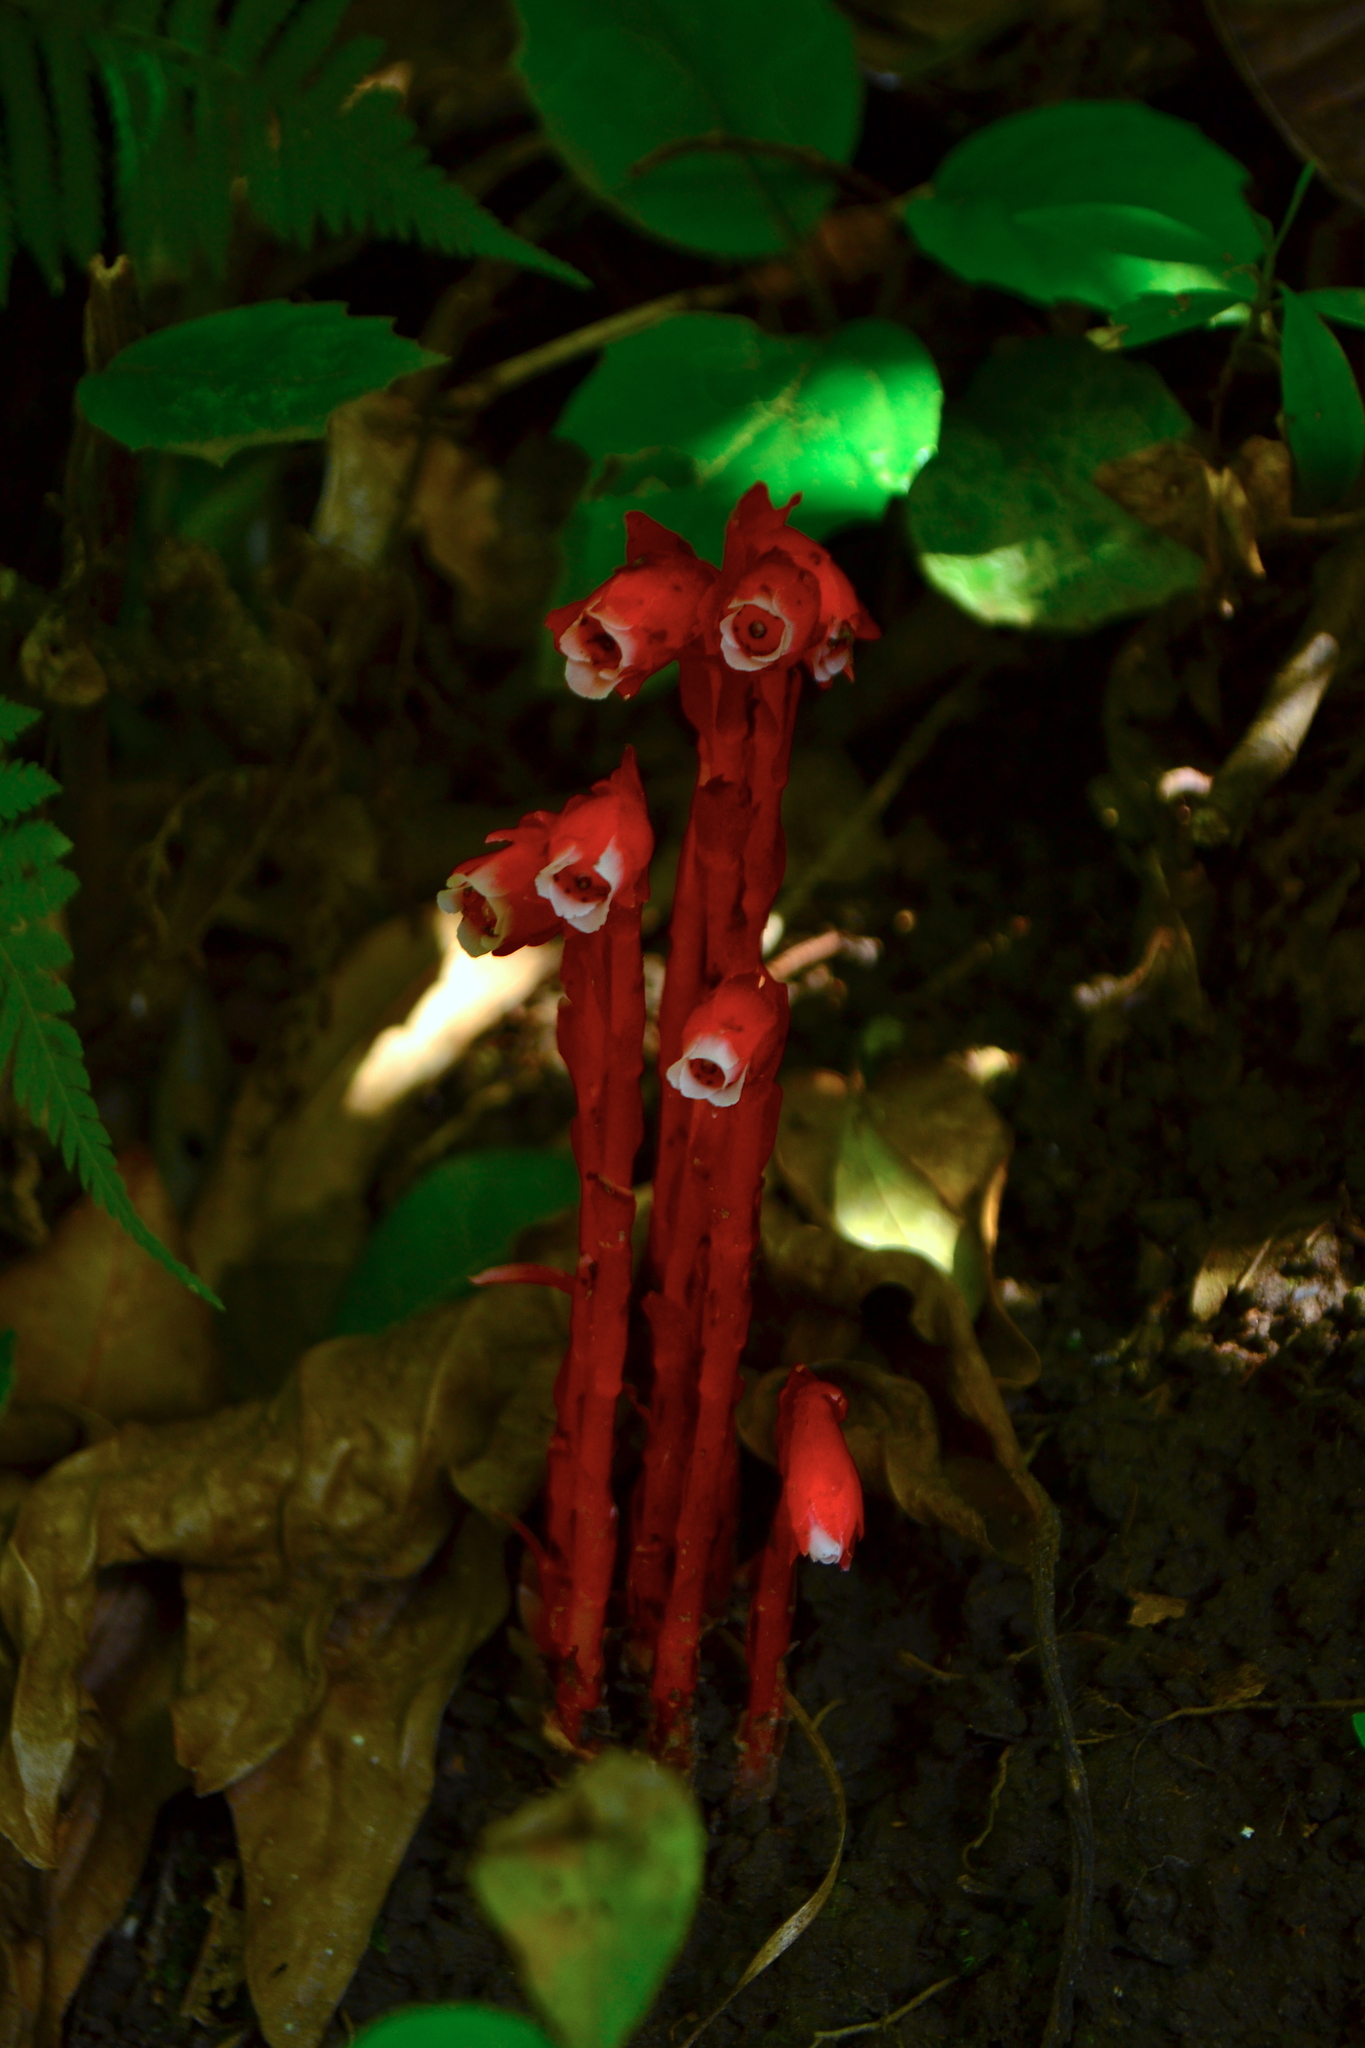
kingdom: Plantae
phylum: Tracheophyta
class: Magnoliopsida
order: Ericales
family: Ericaceae
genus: Monotropa
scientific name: Monotropa coccinea
